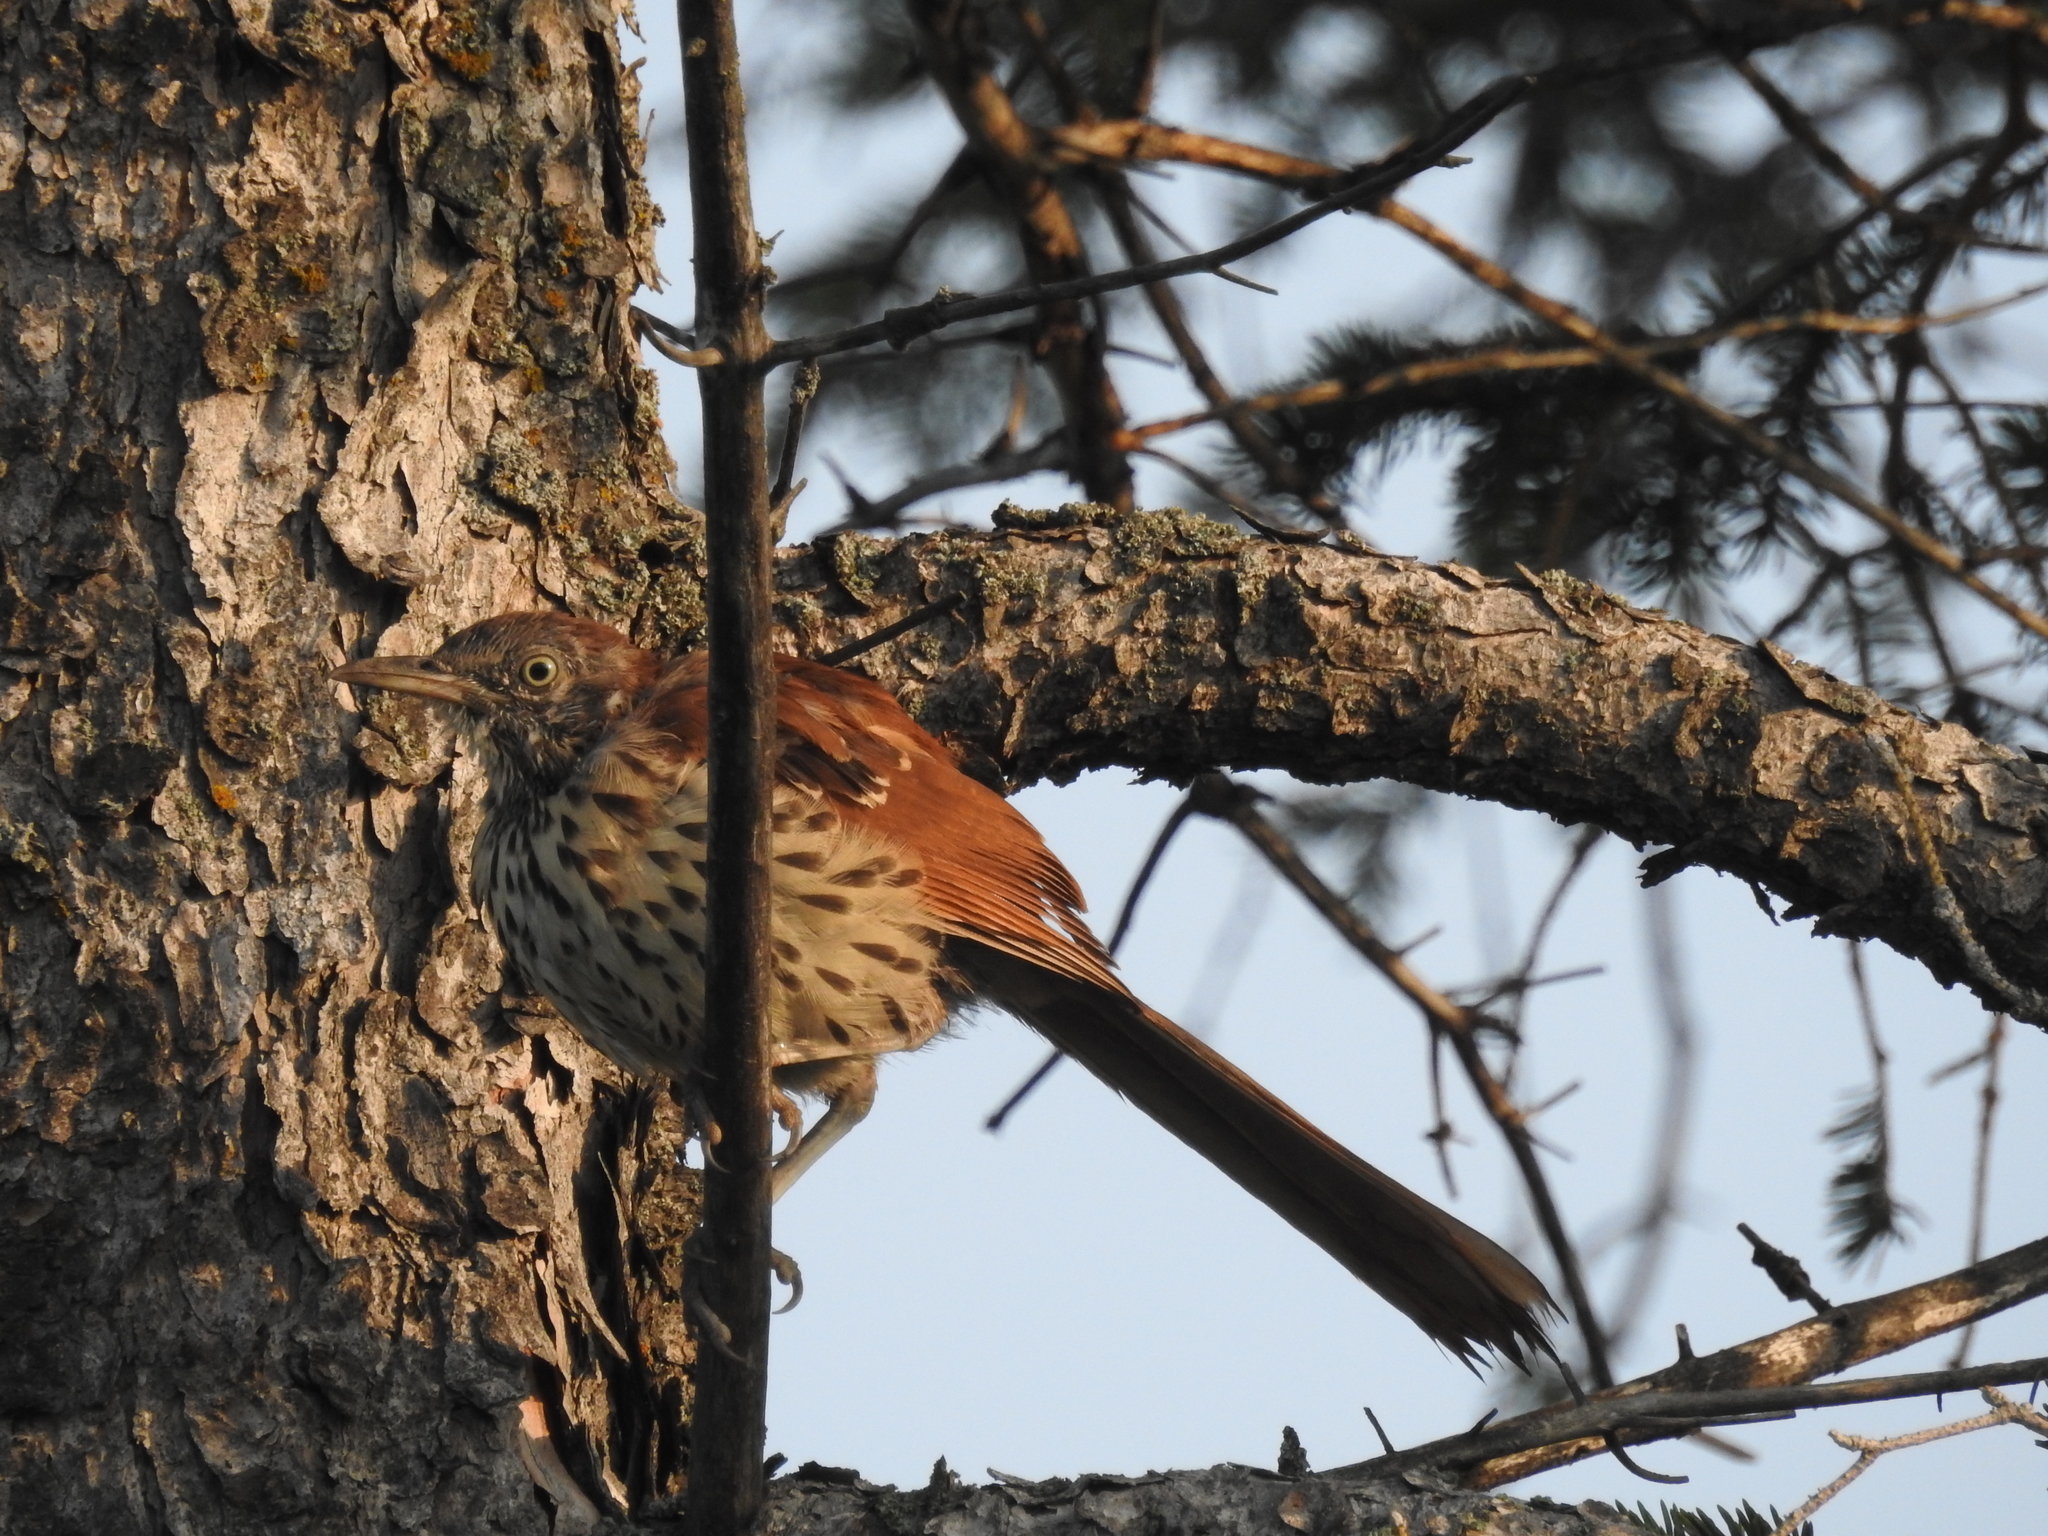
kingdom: Animalia
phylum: Chordata
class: Aves
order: Passeriformes
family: Mimidae
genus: Toxostoma
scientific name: Toxostoma rufum
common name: Brown thrasher
